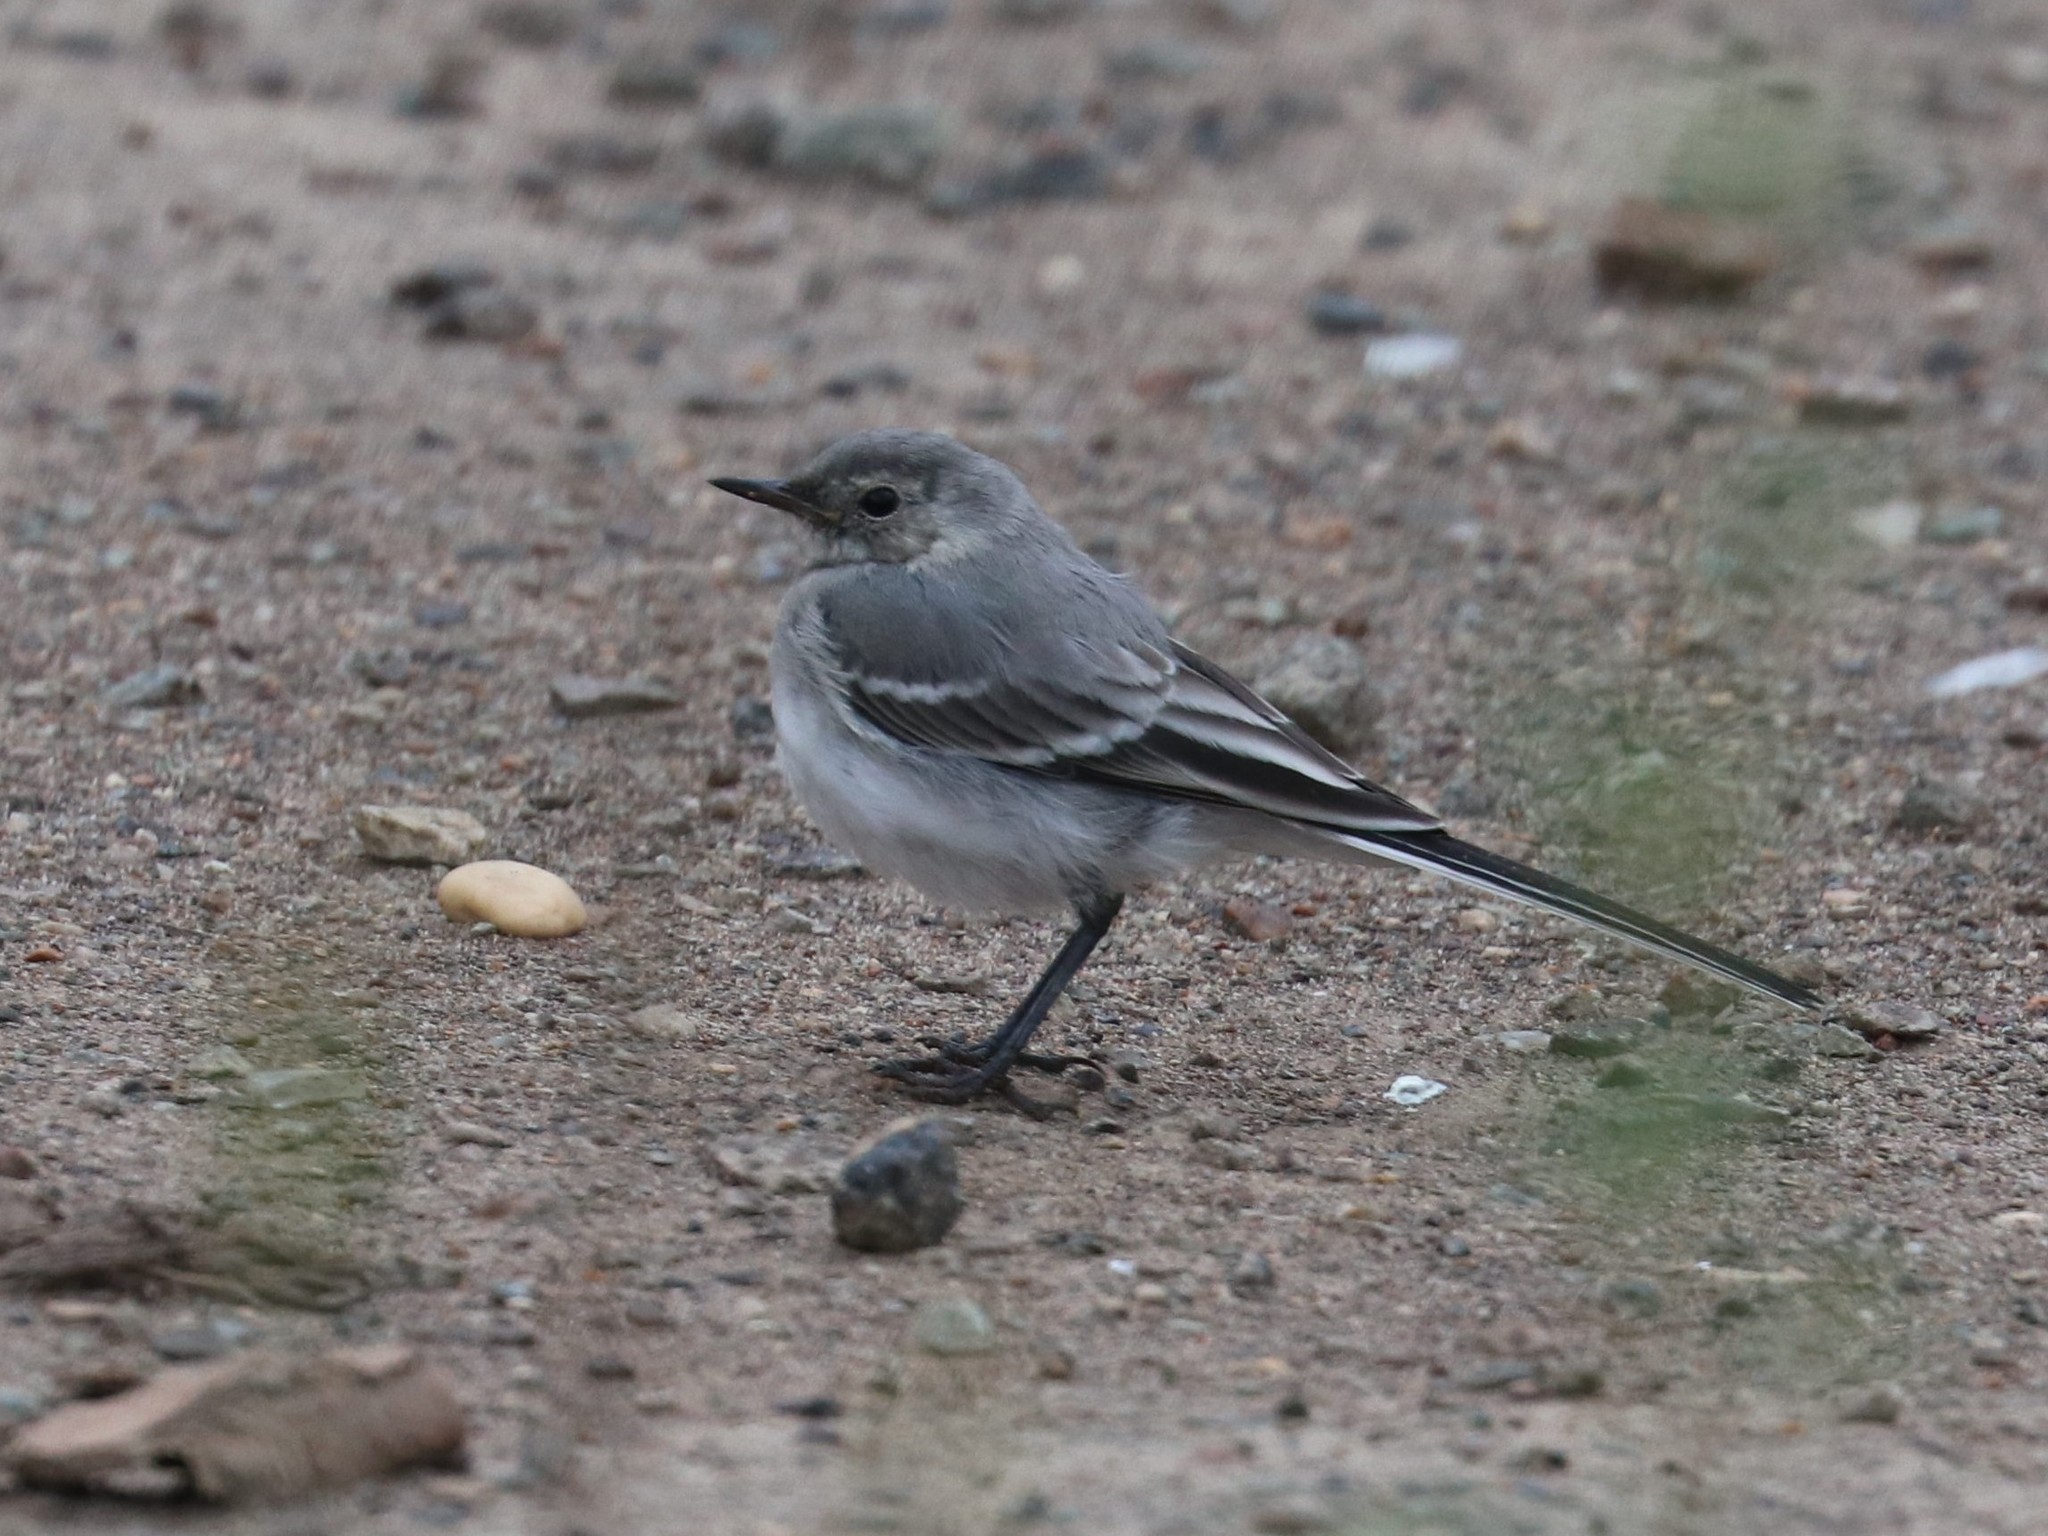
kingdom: Animalia
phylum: Chordata
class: Aves
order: Passeriformes
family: Motacillidae
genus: Motacilla
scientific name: Motacilla alba
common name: White wagtail
